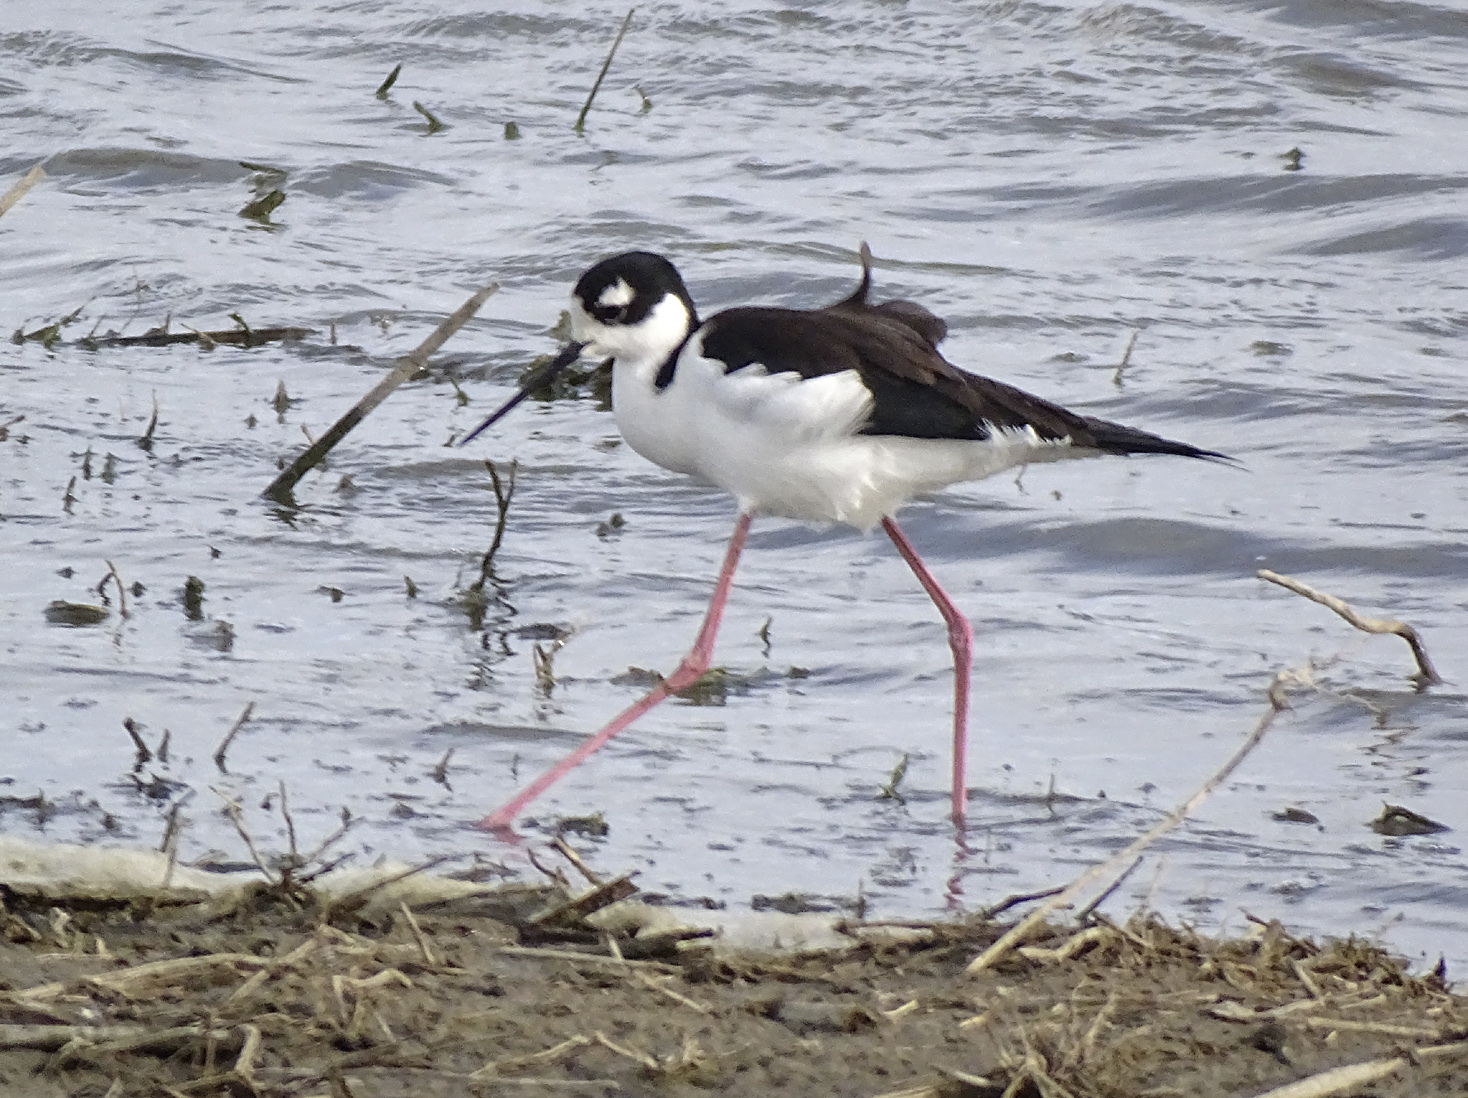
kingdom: Animalia
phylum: Chordata
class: Aves
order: Charadriiformes
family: Recurvirostridae
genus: Himantopus
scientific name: Himantopus mexicanus
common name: Black-necked stilt
